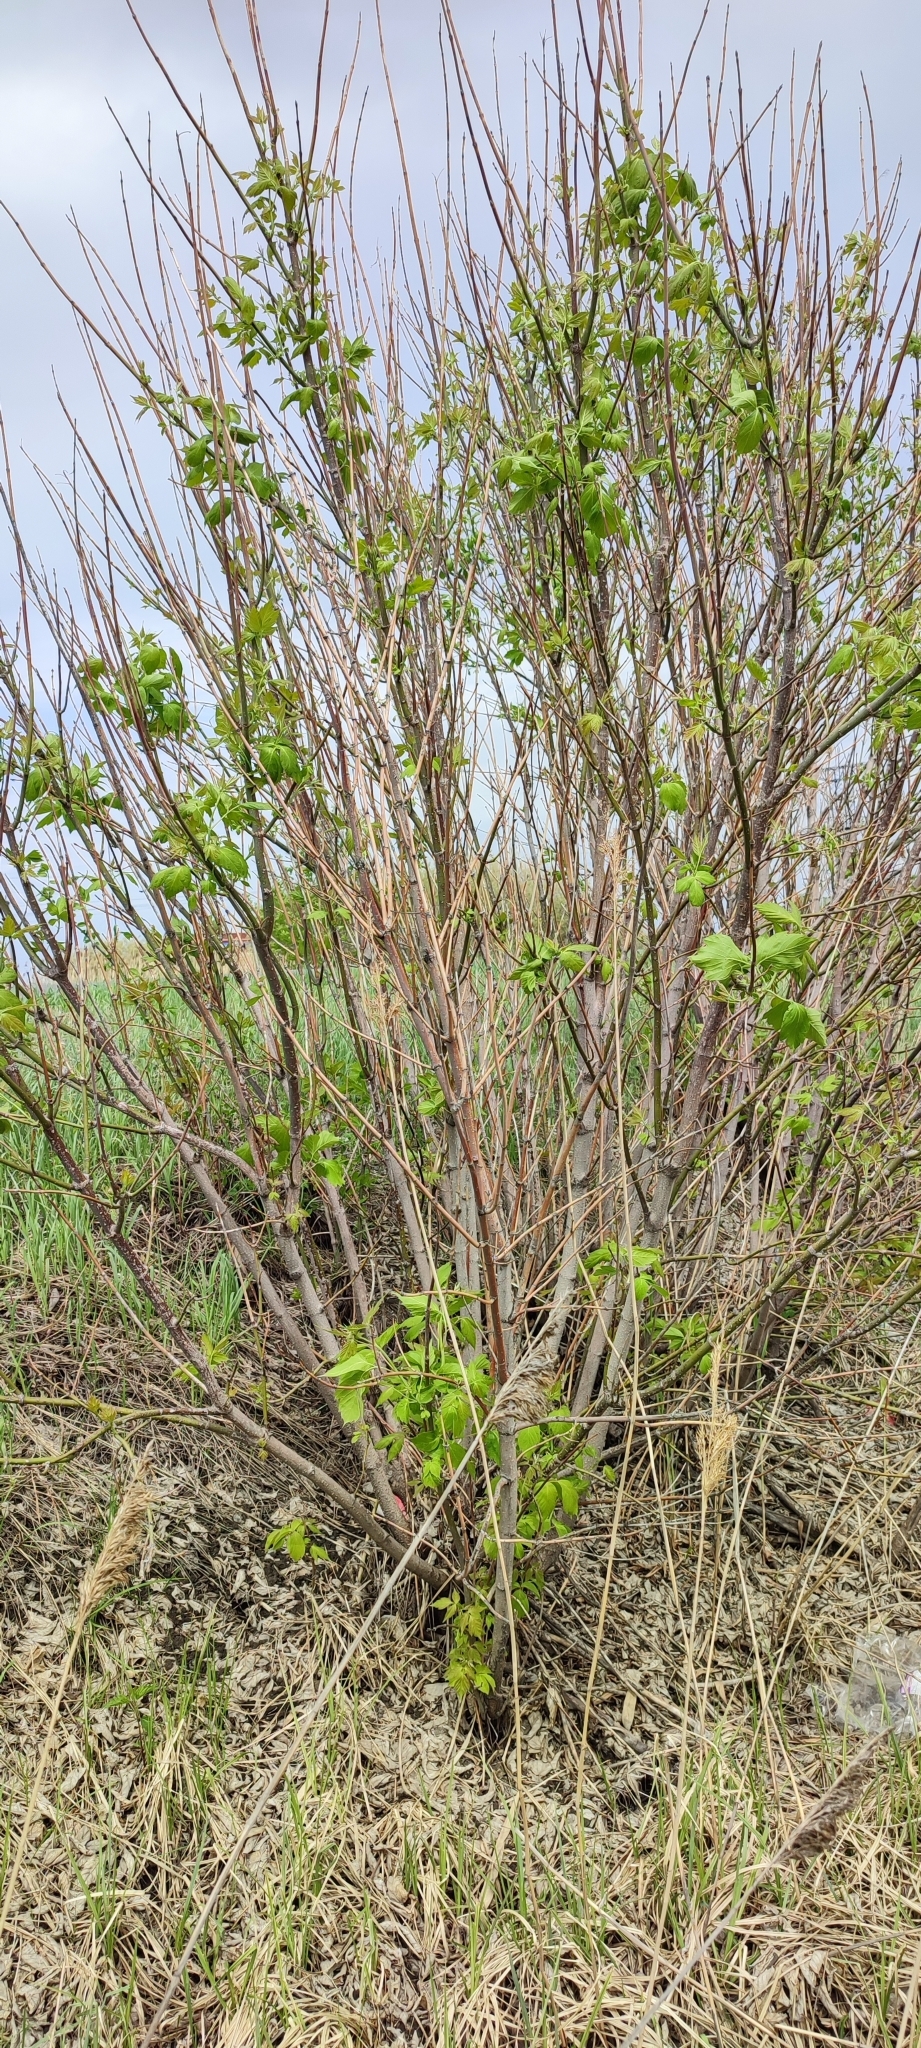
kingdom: Plantae
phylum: Tracheophyta
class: Magnoliopsida
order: Sapindales
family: Sapindaceae
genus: Acer
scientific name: Acer negundo
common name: Ashleaf maple
